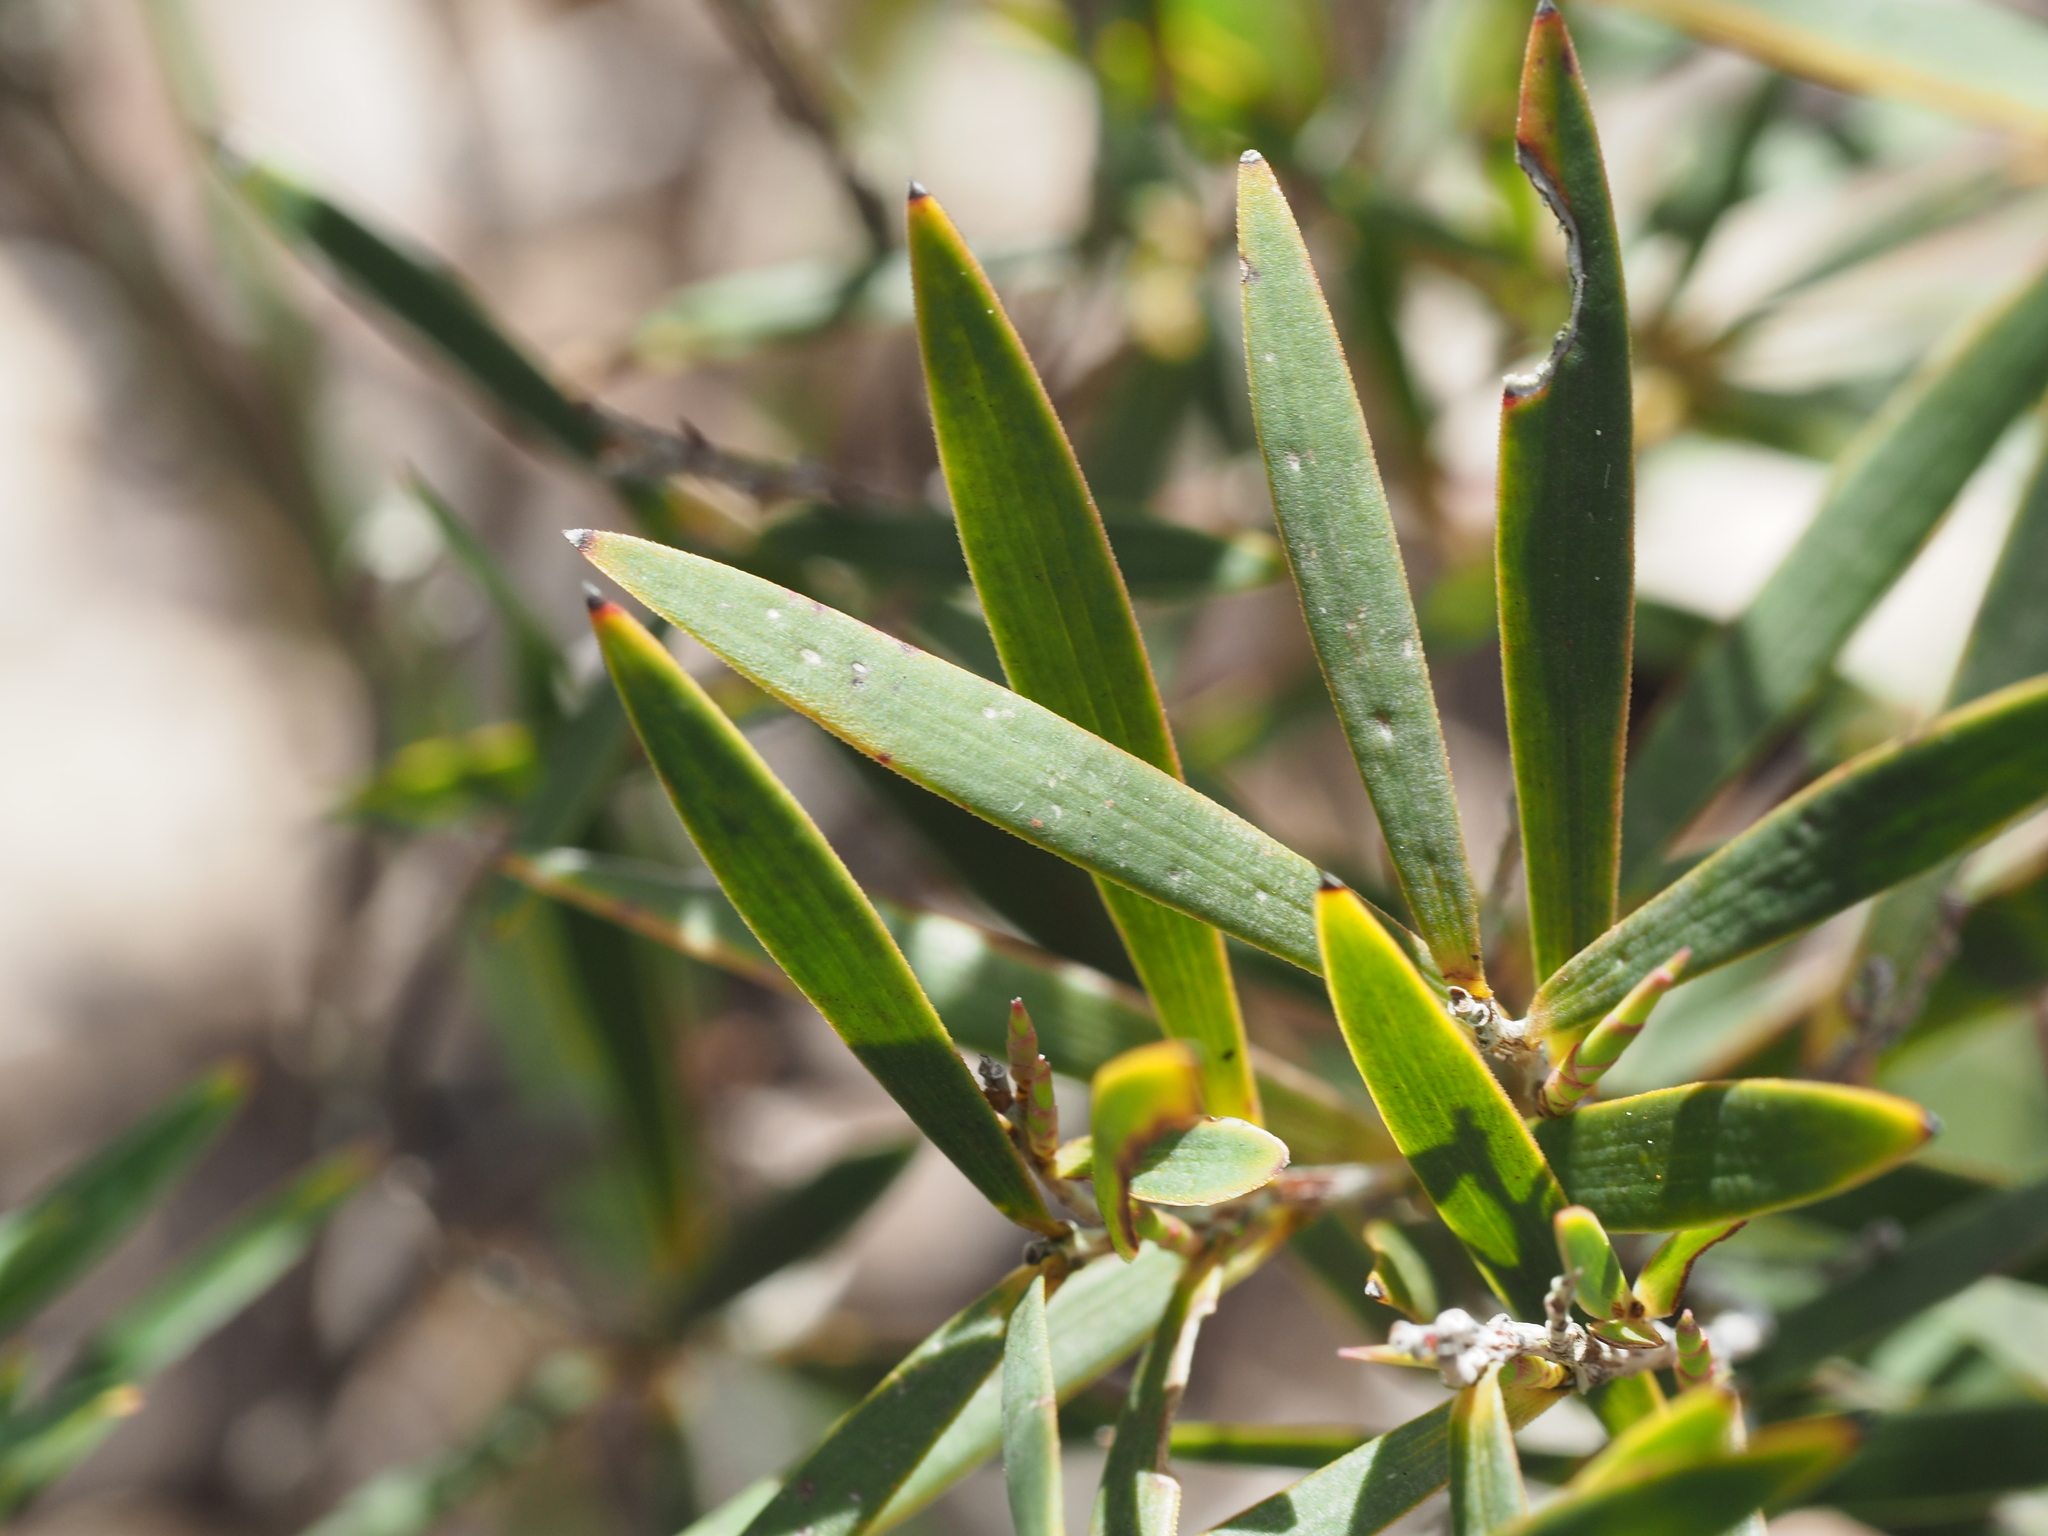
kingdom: Plantae
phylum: Tracheophyta
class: Magnoliopsida
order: Ericales
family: Ericaceae
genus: Leucopogon
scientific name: Leucopogon australis
